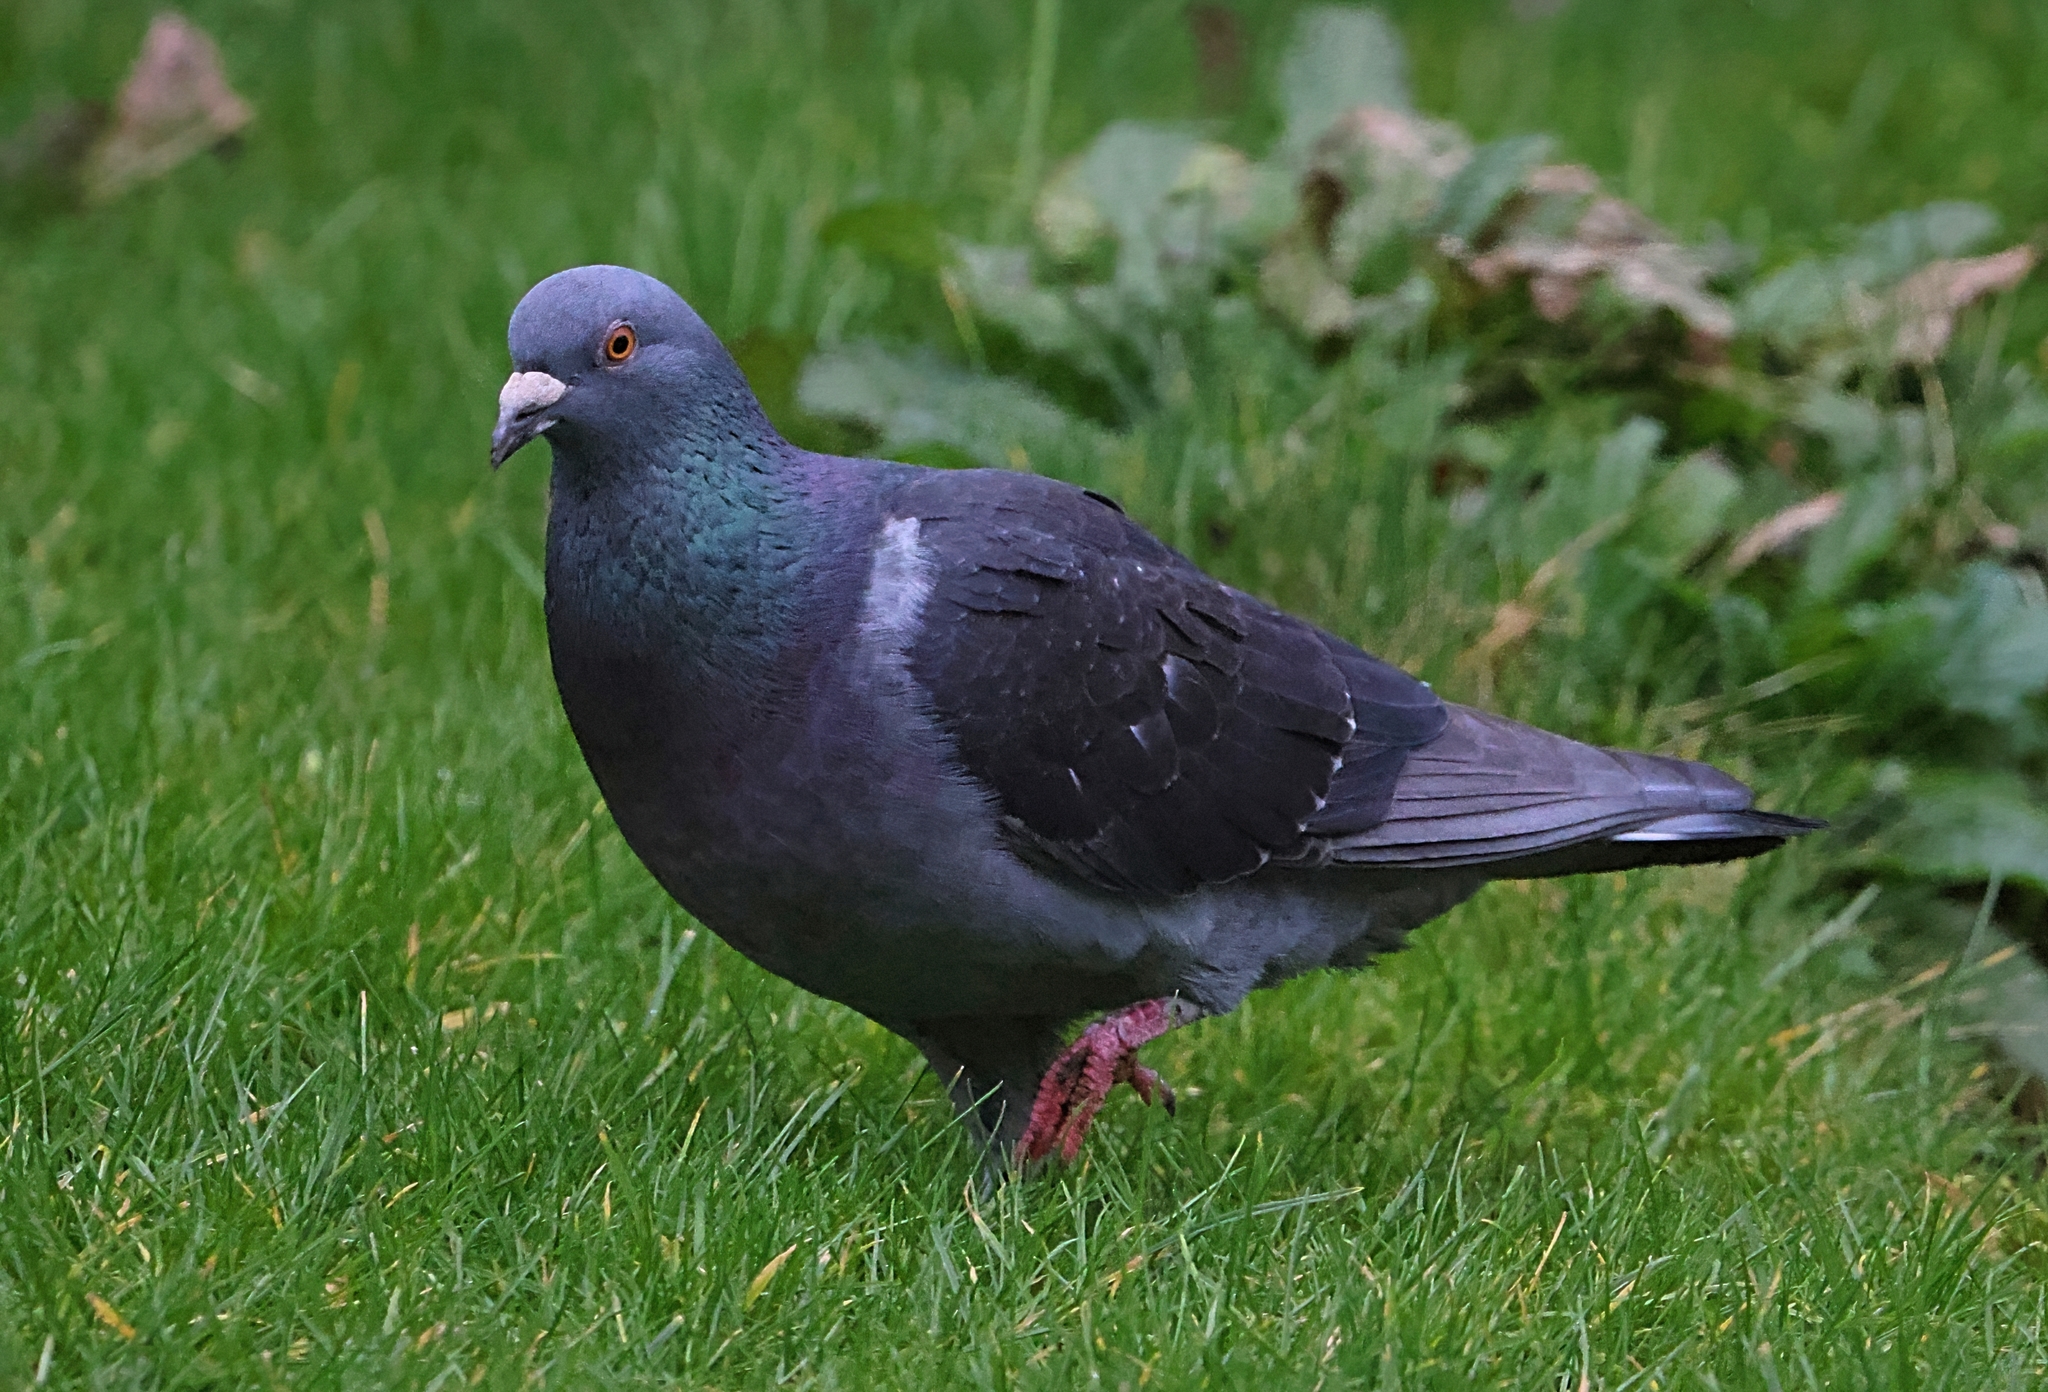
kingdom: Animalia
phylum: Chordata
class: Aves
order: Columbiformes
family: Columbidae
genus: Columba
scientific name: Columba livia
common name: Rock pigeon
